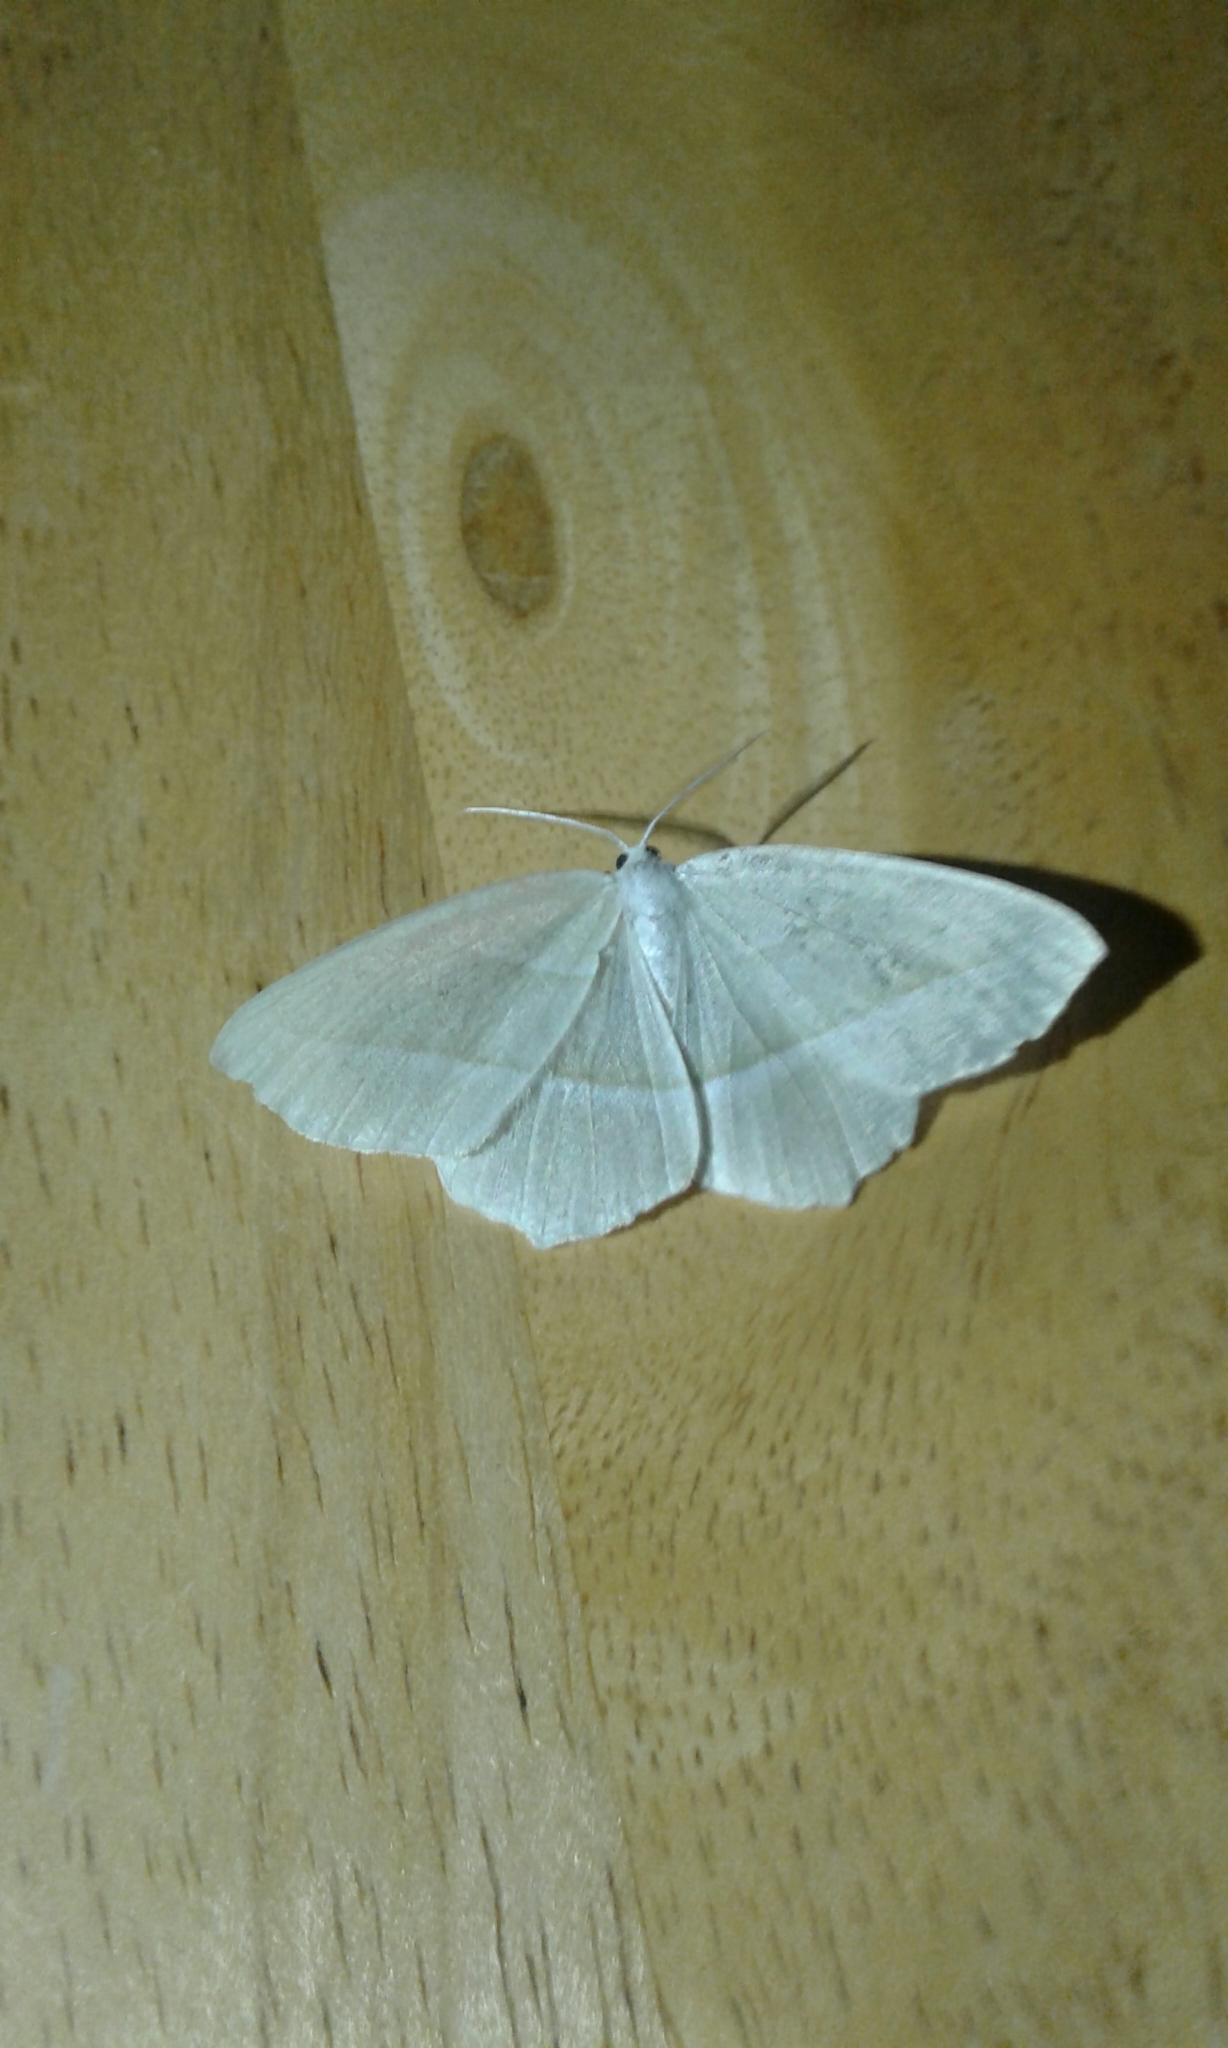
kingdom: Animalia
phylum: Arthropoda
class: Insecta
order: Lepidoptera
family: Geometridae
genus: Campaea
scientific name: Campaea perlata
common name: Fringed looper
